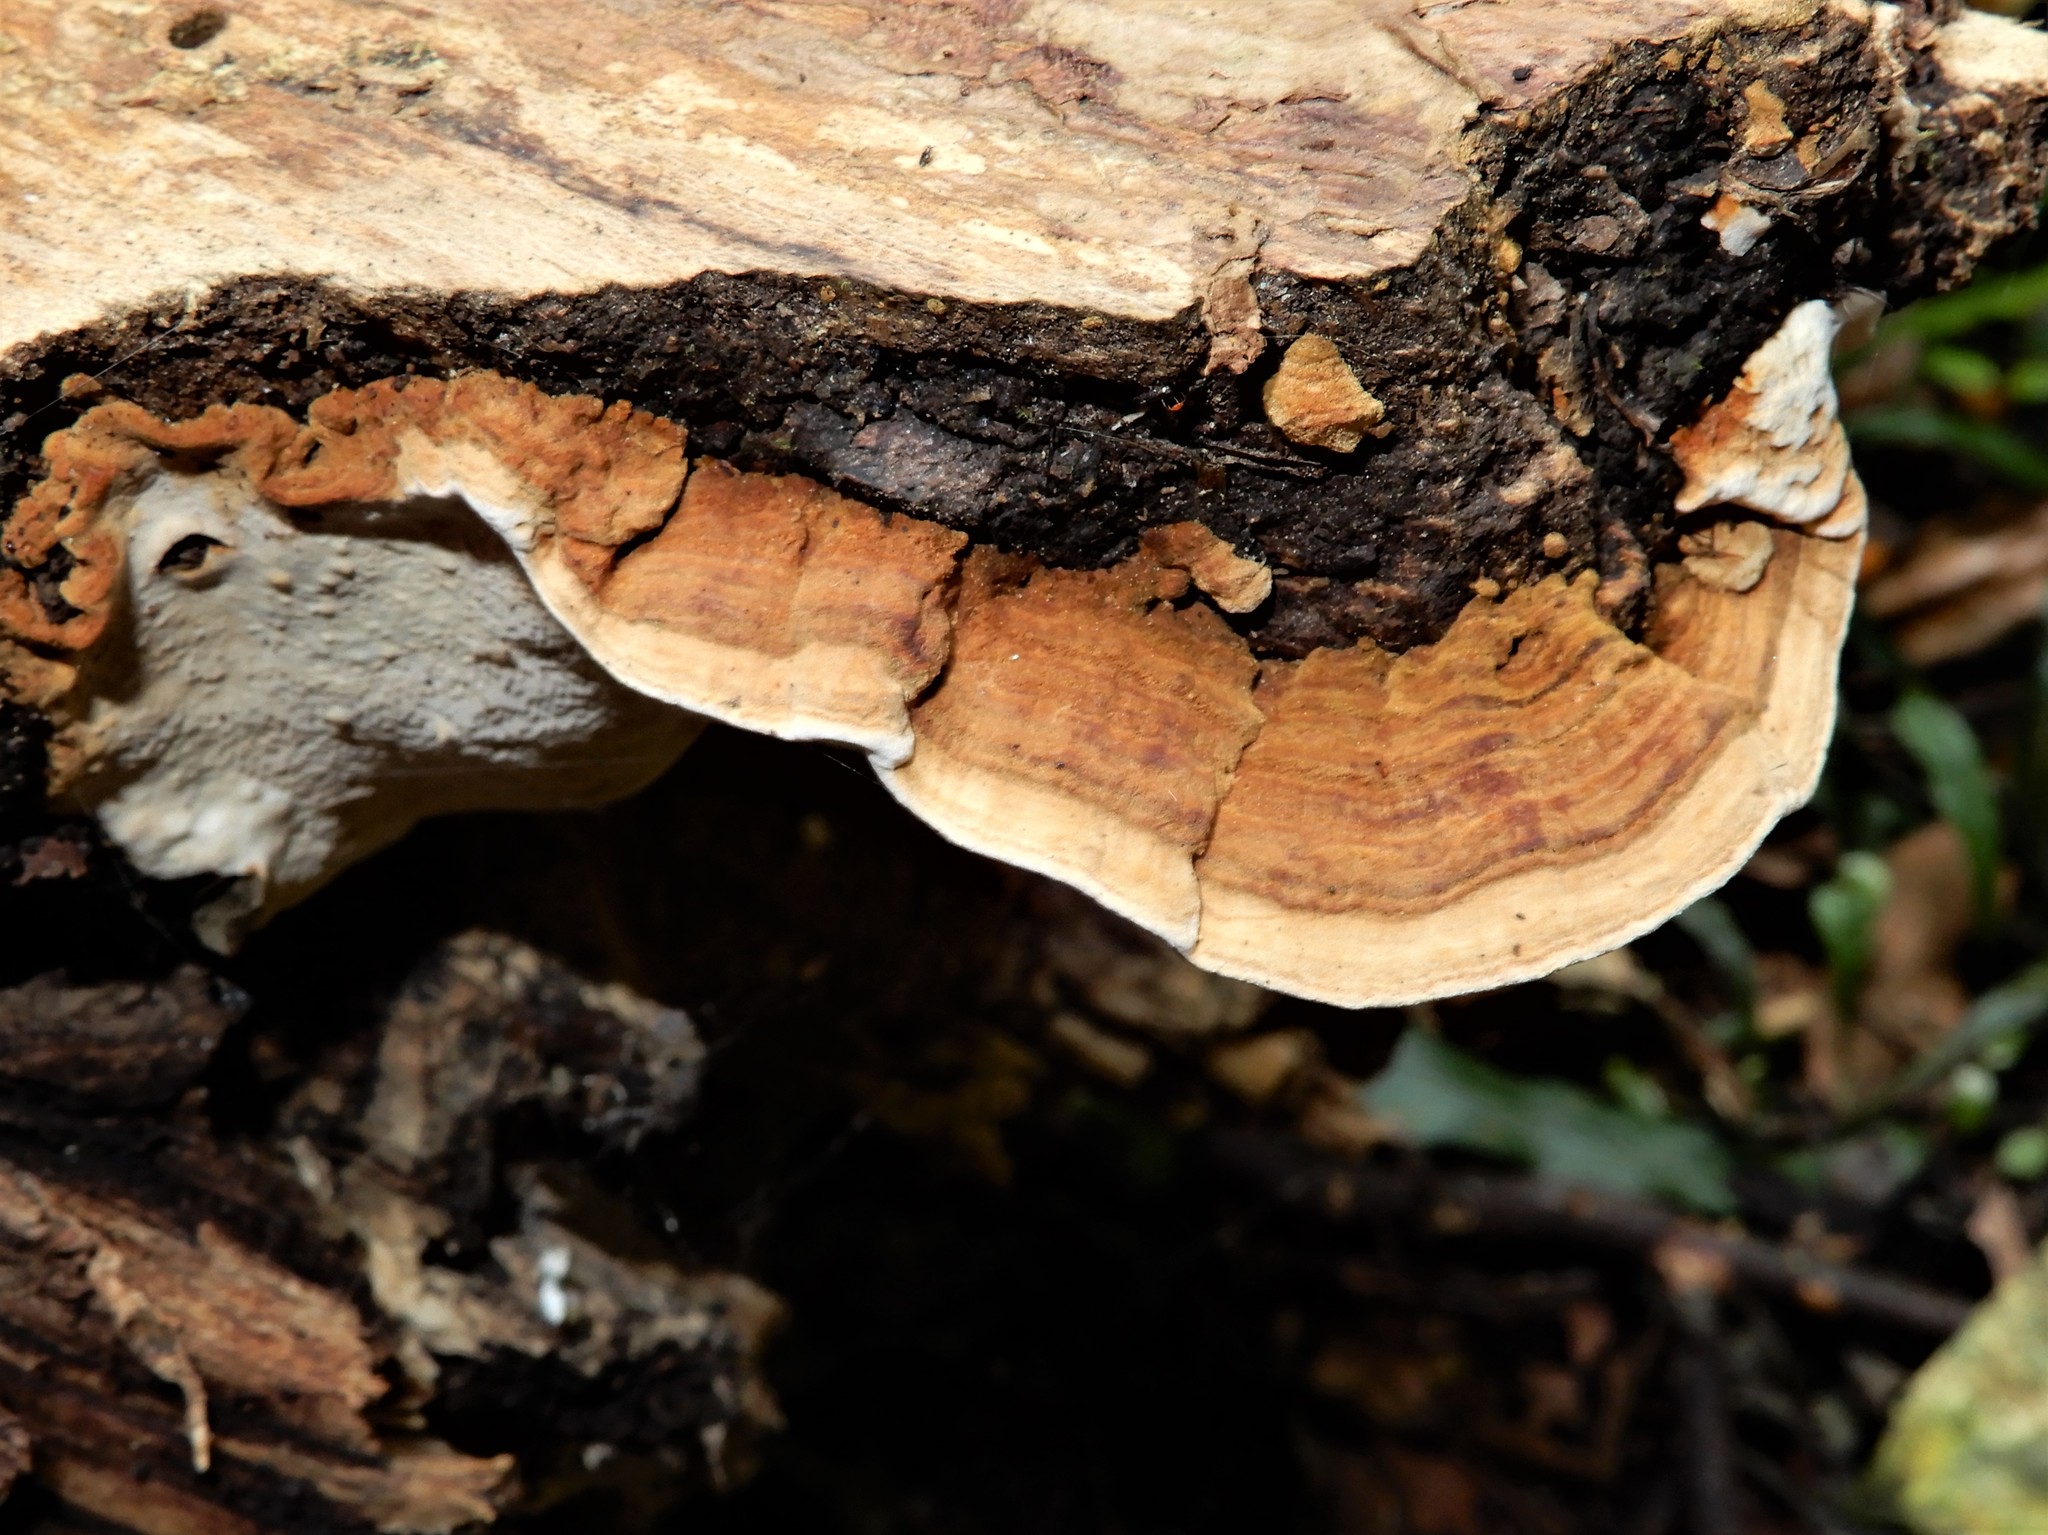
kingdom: Fungi
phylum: Basidiomycota
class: Agaricomycetes
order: Polyporales
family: Polyporaceae
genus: Australoporus
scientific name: Australoporus tasmanicus
